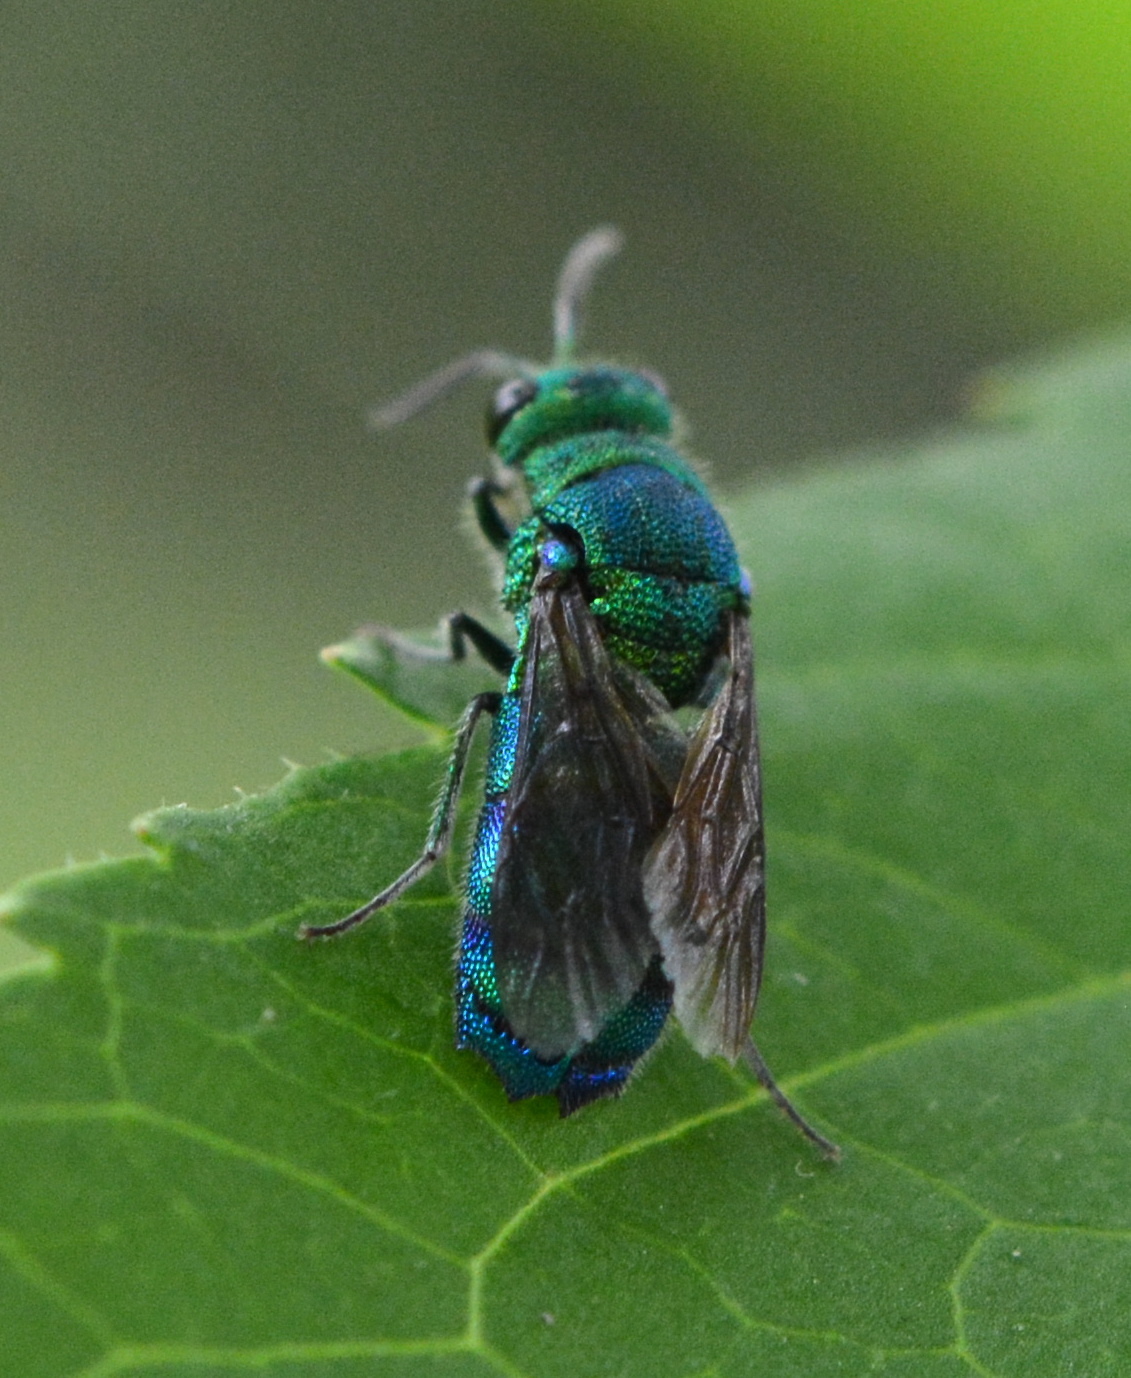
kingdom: Animalia
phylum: Arthropoda
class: Insecta
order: Hymenoptera
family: Chrysididae
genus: Chrysis
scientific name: Chrysis conica
